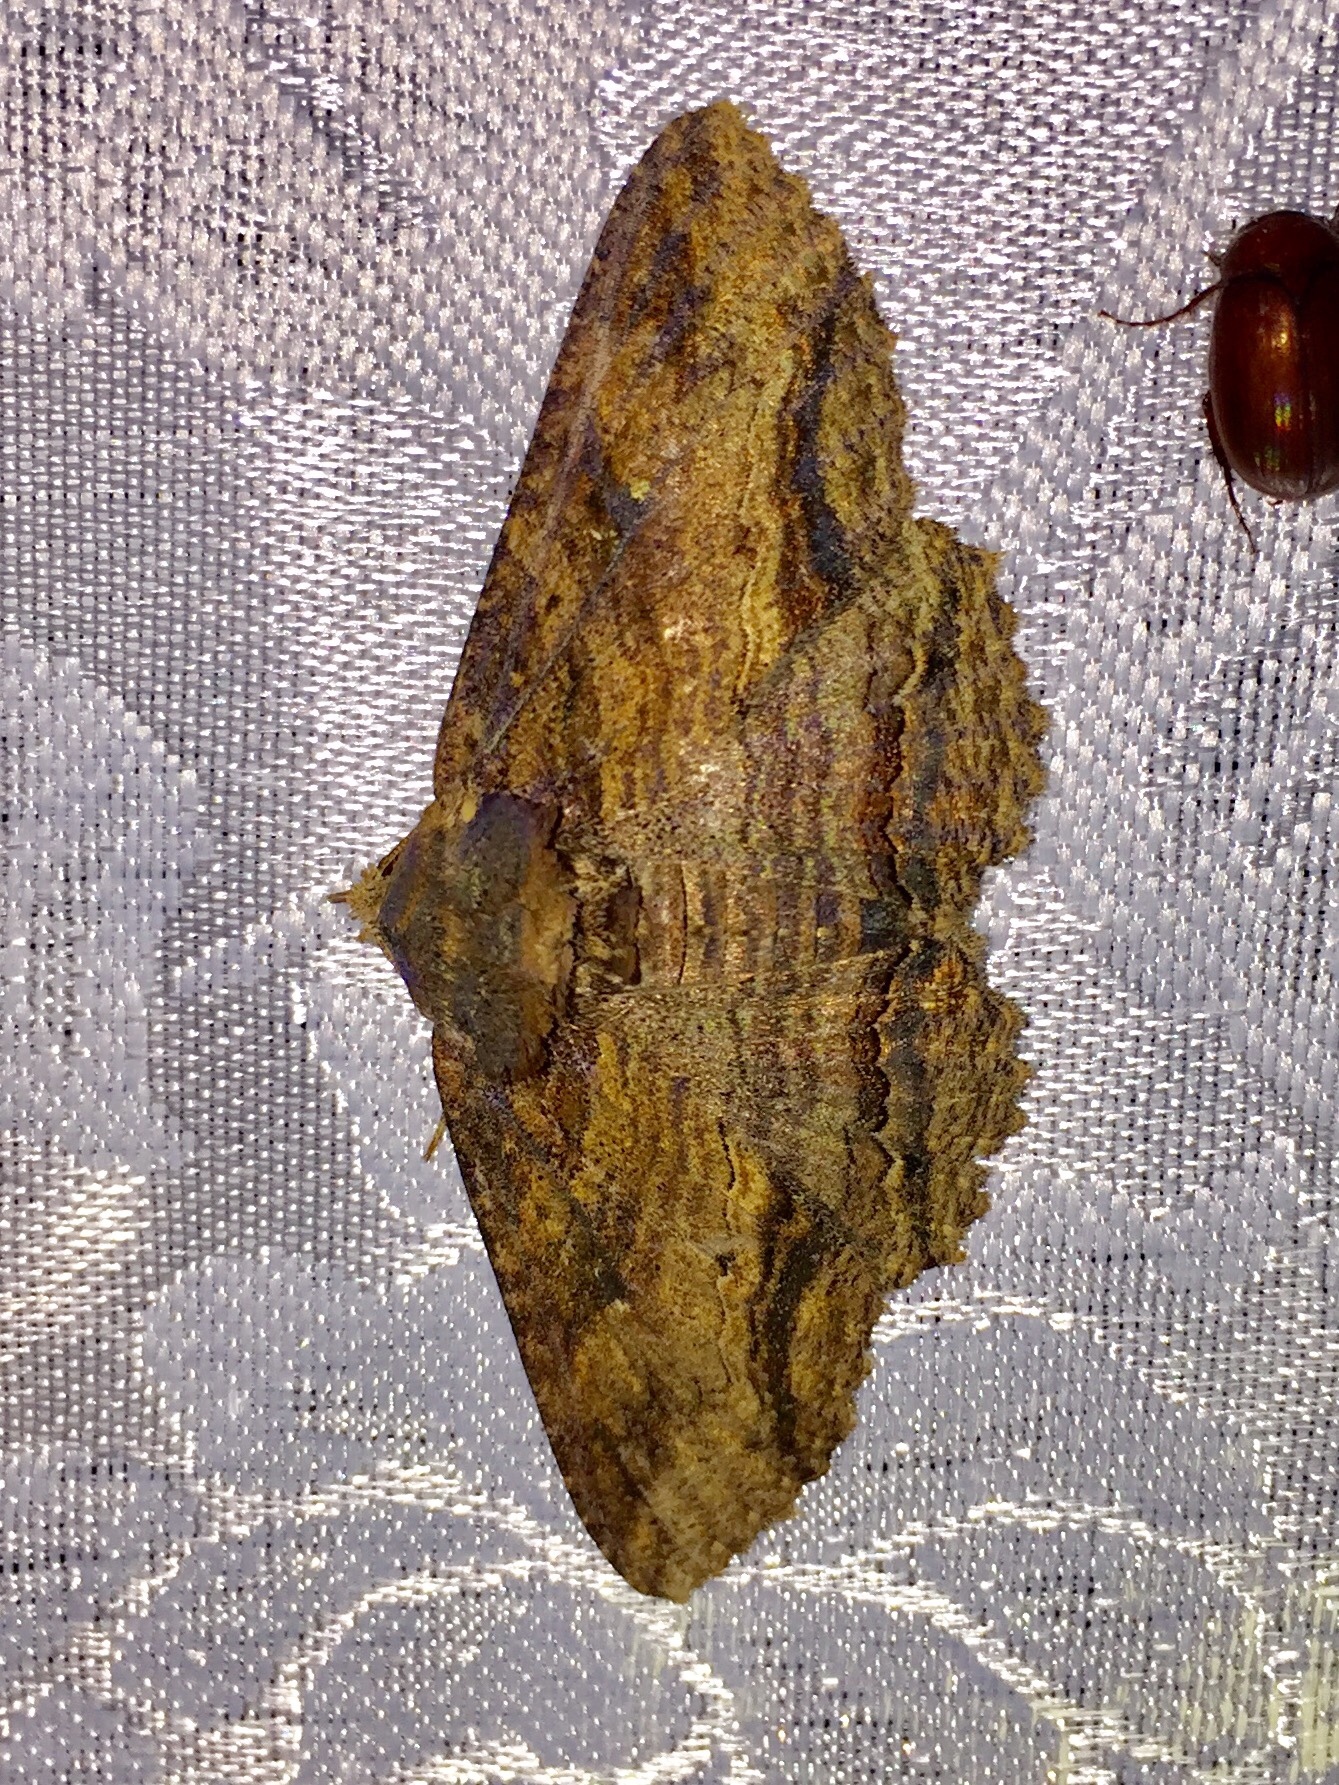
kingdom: Animalia
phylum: Arthropoda
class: Insecta
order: Lepidoptera
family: Erebidae
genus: Zale
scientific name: Zale lunata
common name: Lunate zale moth
